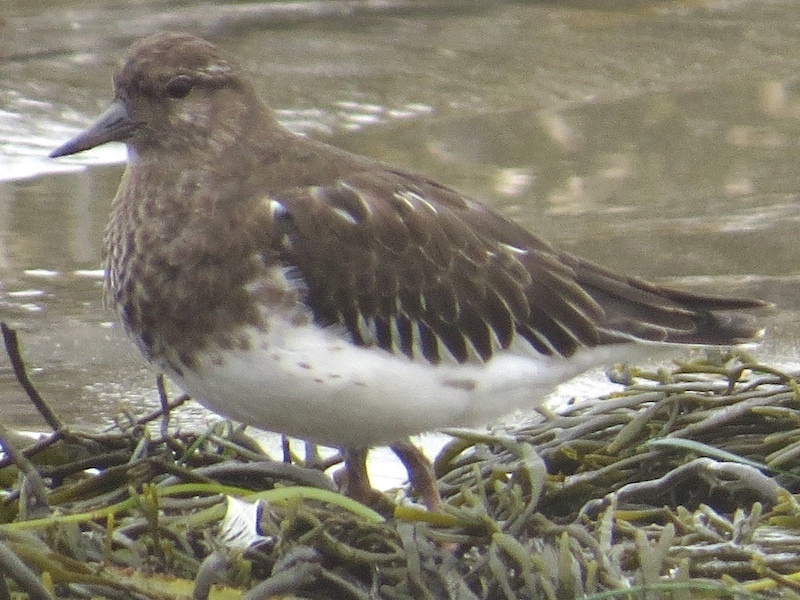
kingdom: Animalia
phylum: Chordata
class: Aves
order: Charadriiformes
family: Scolopacidae
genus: Arenaria
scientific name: Arenaria melanocephala
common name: Black turnstone
